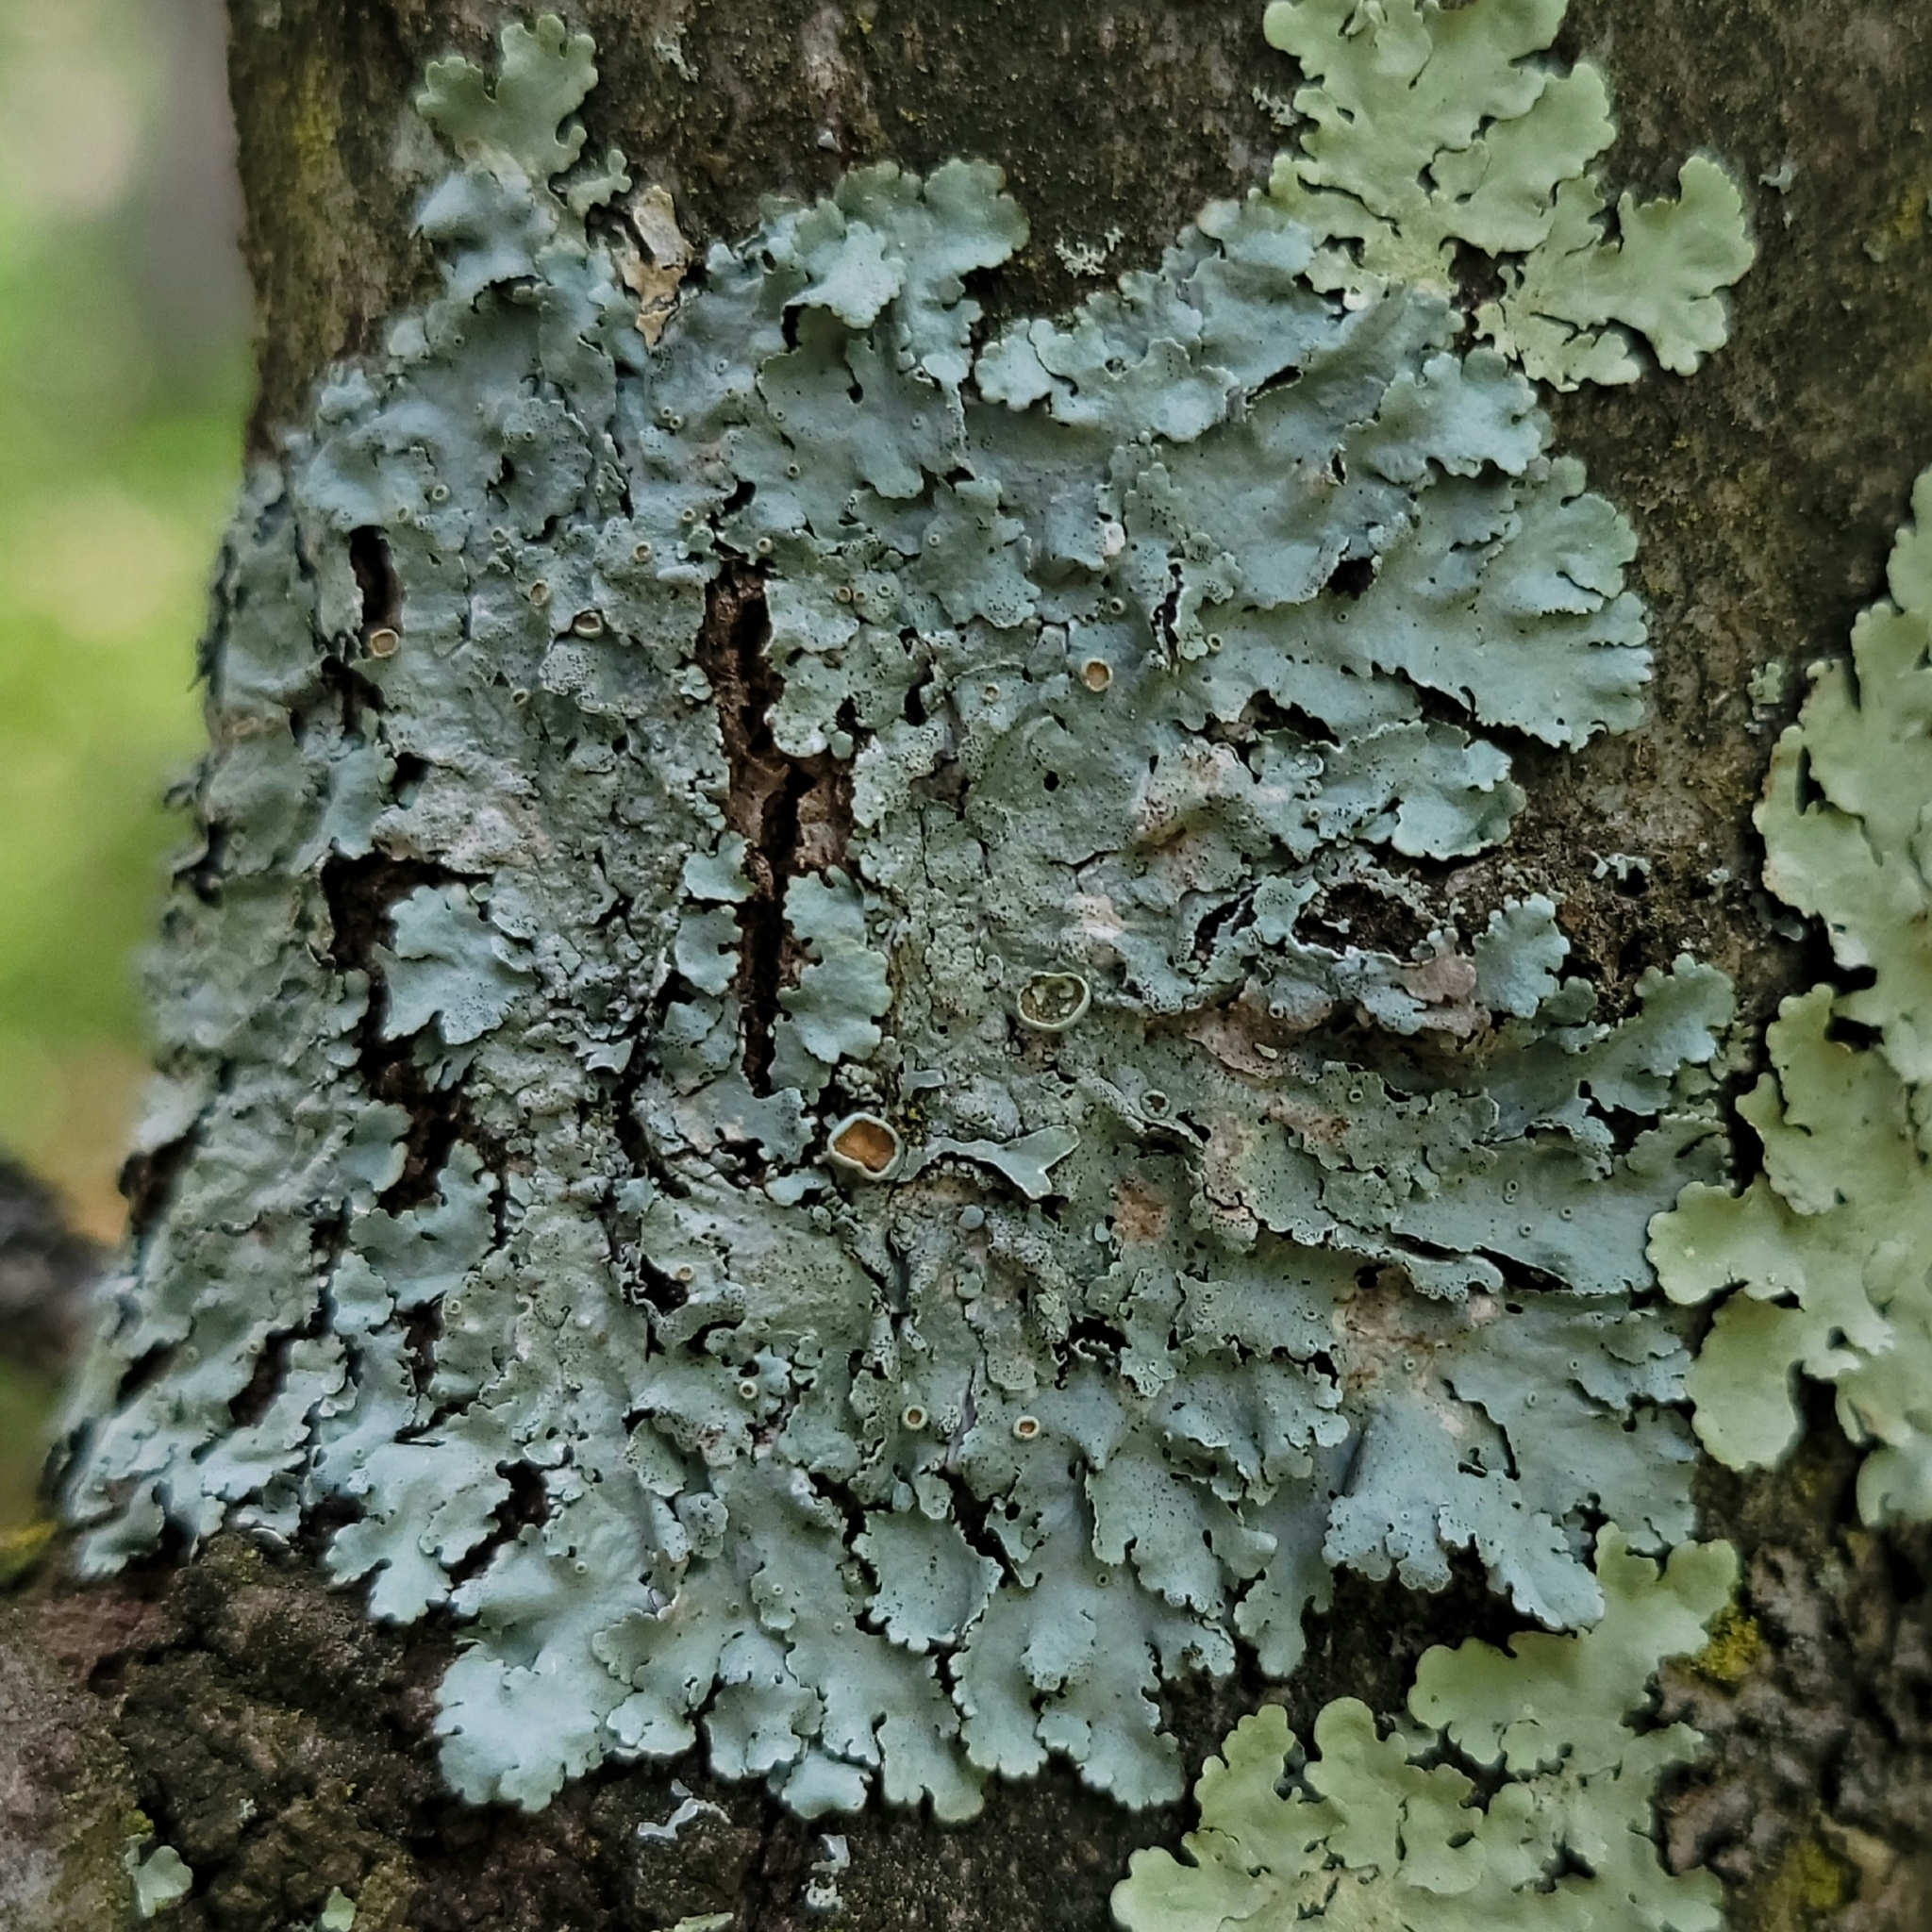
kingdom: Fungi
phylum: Ascomycota
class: Lecanoromycetes
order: Lecanorales
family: Parmeliaceae
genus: Myelochroa
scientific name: Myelochroa galbina
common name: Smooth axil-bristle lichen
